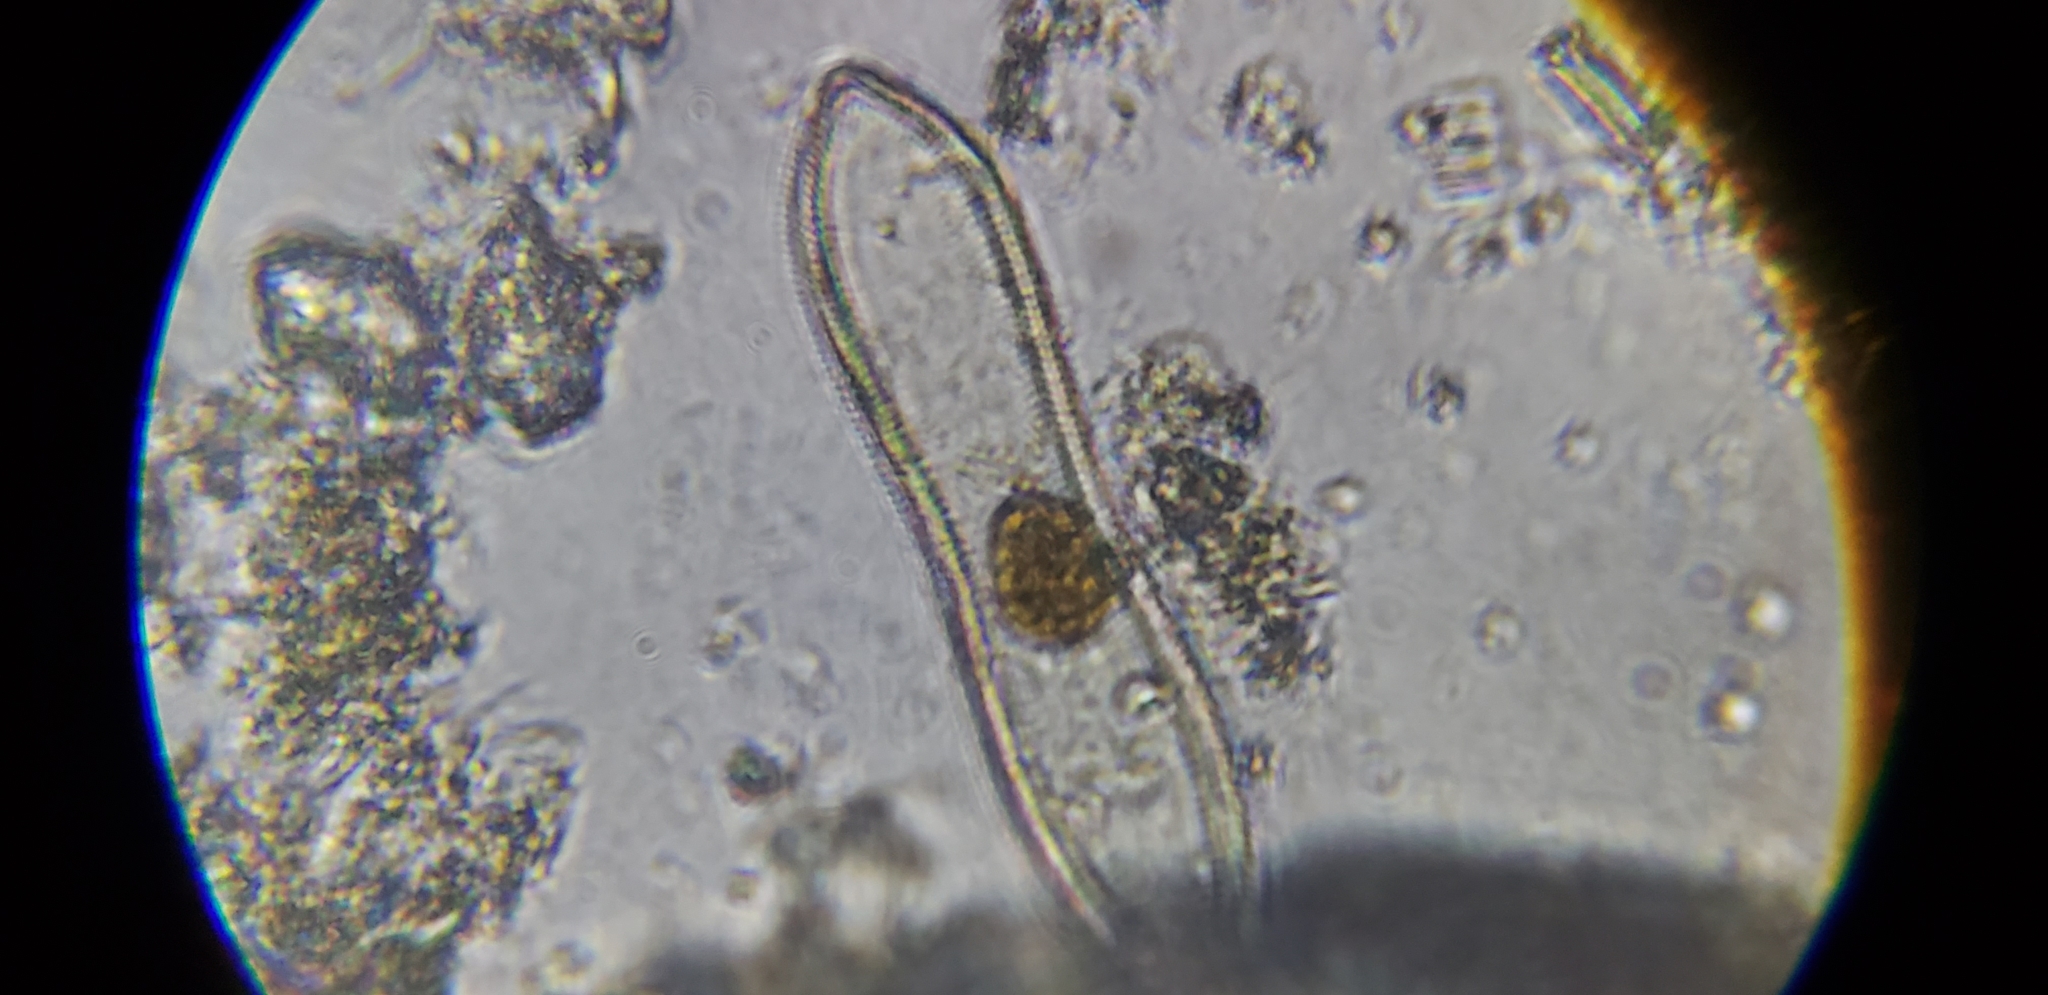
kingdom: Chromista
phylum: Ochrophyta
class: Bacillariophyceae
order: Surirellales
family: Surirellaceae
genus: Surirella
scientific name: Surirella librile
